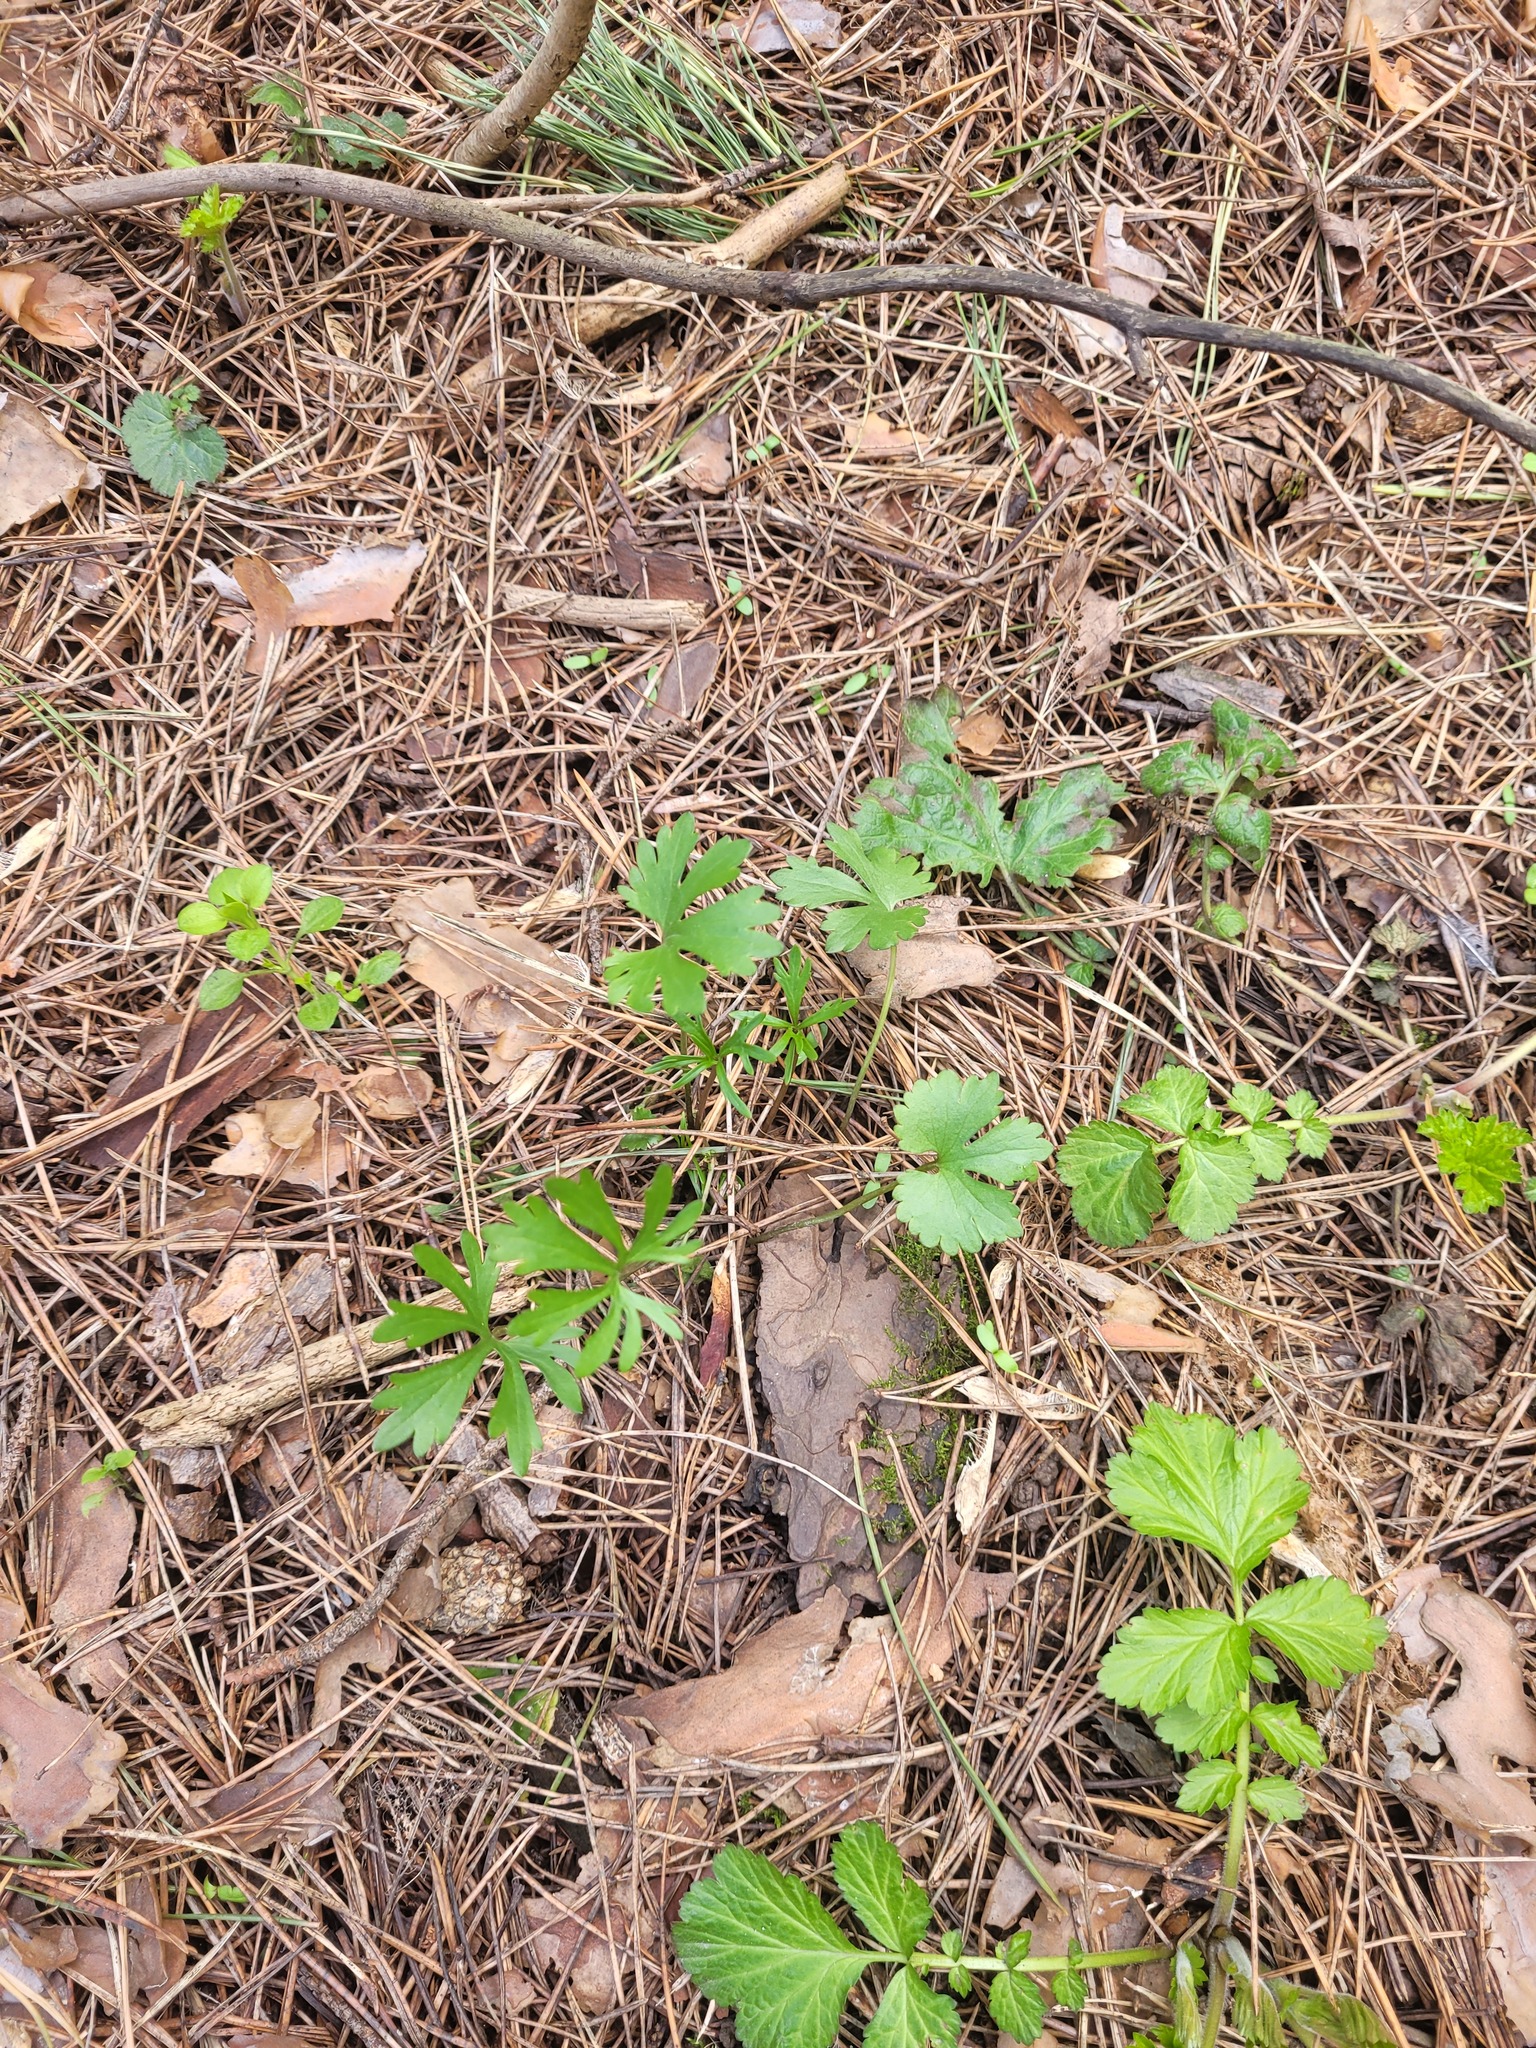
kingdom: Plantae
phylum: Tracheophyta
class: Magnoliopsida
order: Ranunculales
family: Ranunculaceae
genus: Ranunculus
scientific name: Ranunculus auricomus
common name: Goldilocks buttercup
